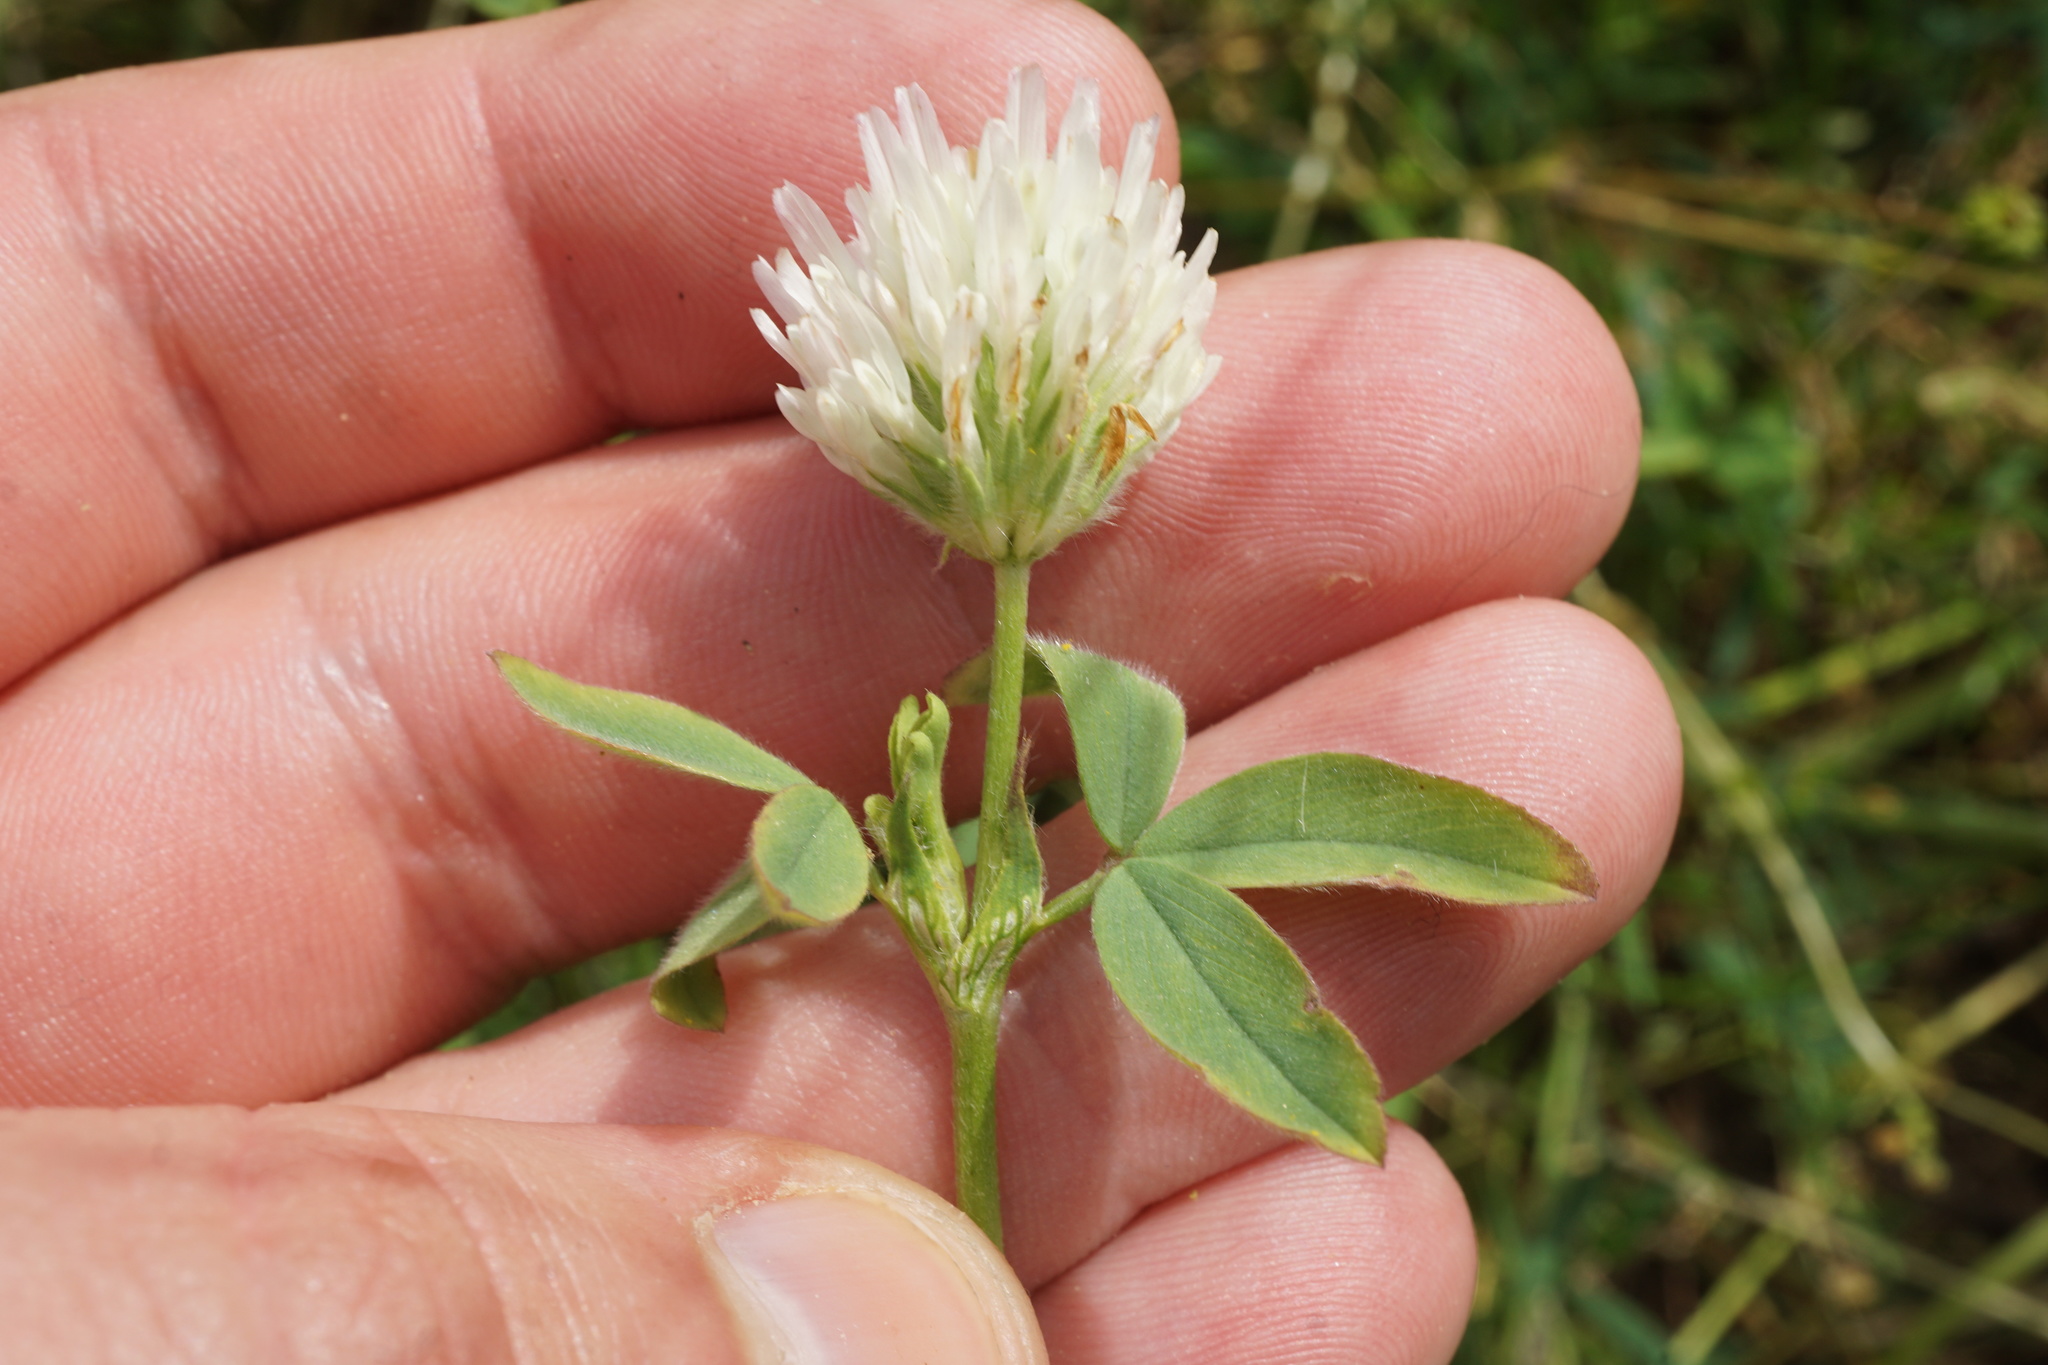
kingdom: Plantae
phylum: Tracheophyta
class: Magnoliopsida
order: Fabales
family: Fabaceae
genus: Trifolium
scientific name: Trifolium montanum
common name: Mountain clover
